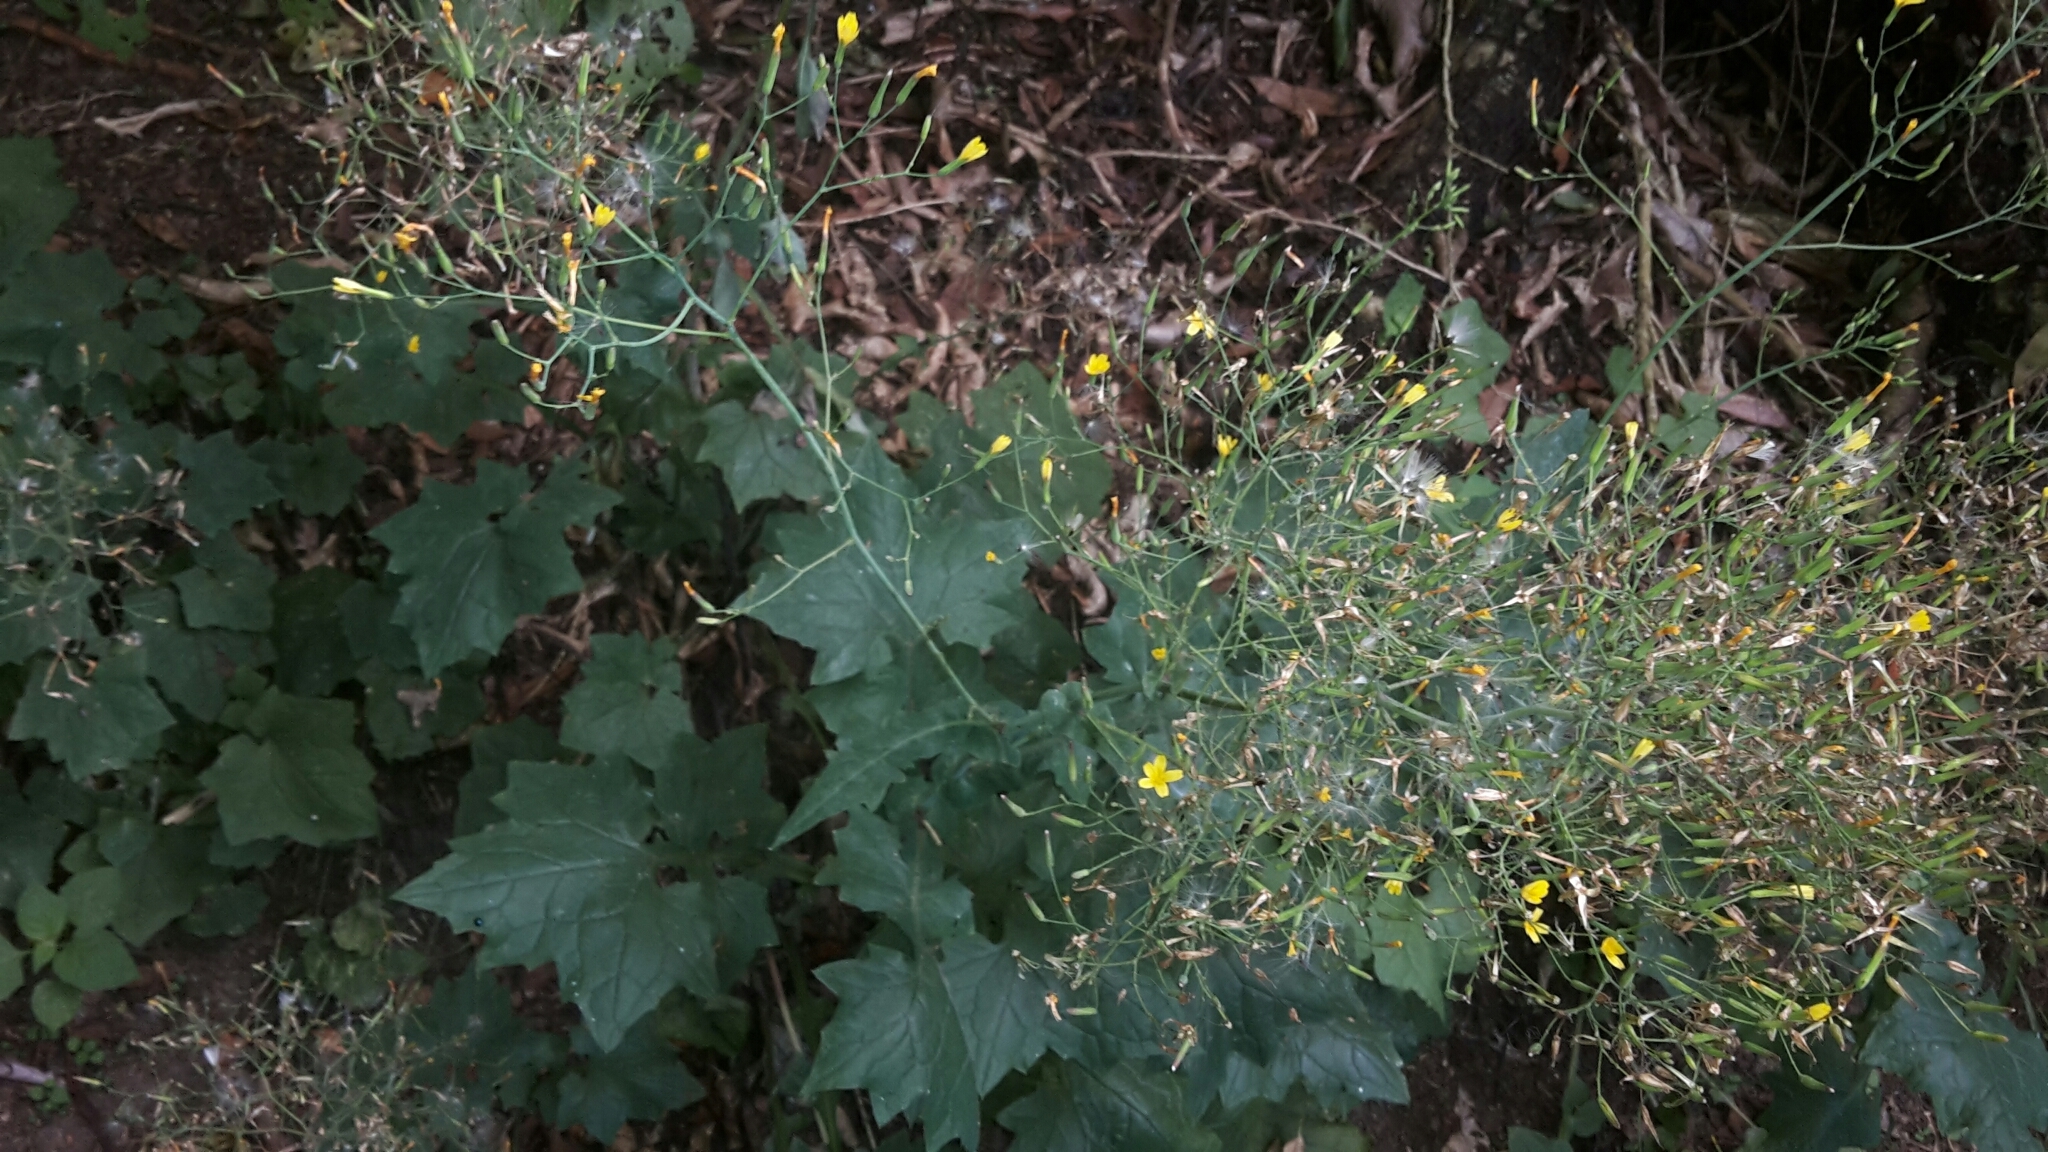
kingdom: Plantae
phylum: Tracheophyta
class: Magnoliopsida
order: Asterales
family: Asteraceae
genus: Mycelis
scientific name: Mycelis muralis
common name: Wall lettuce
